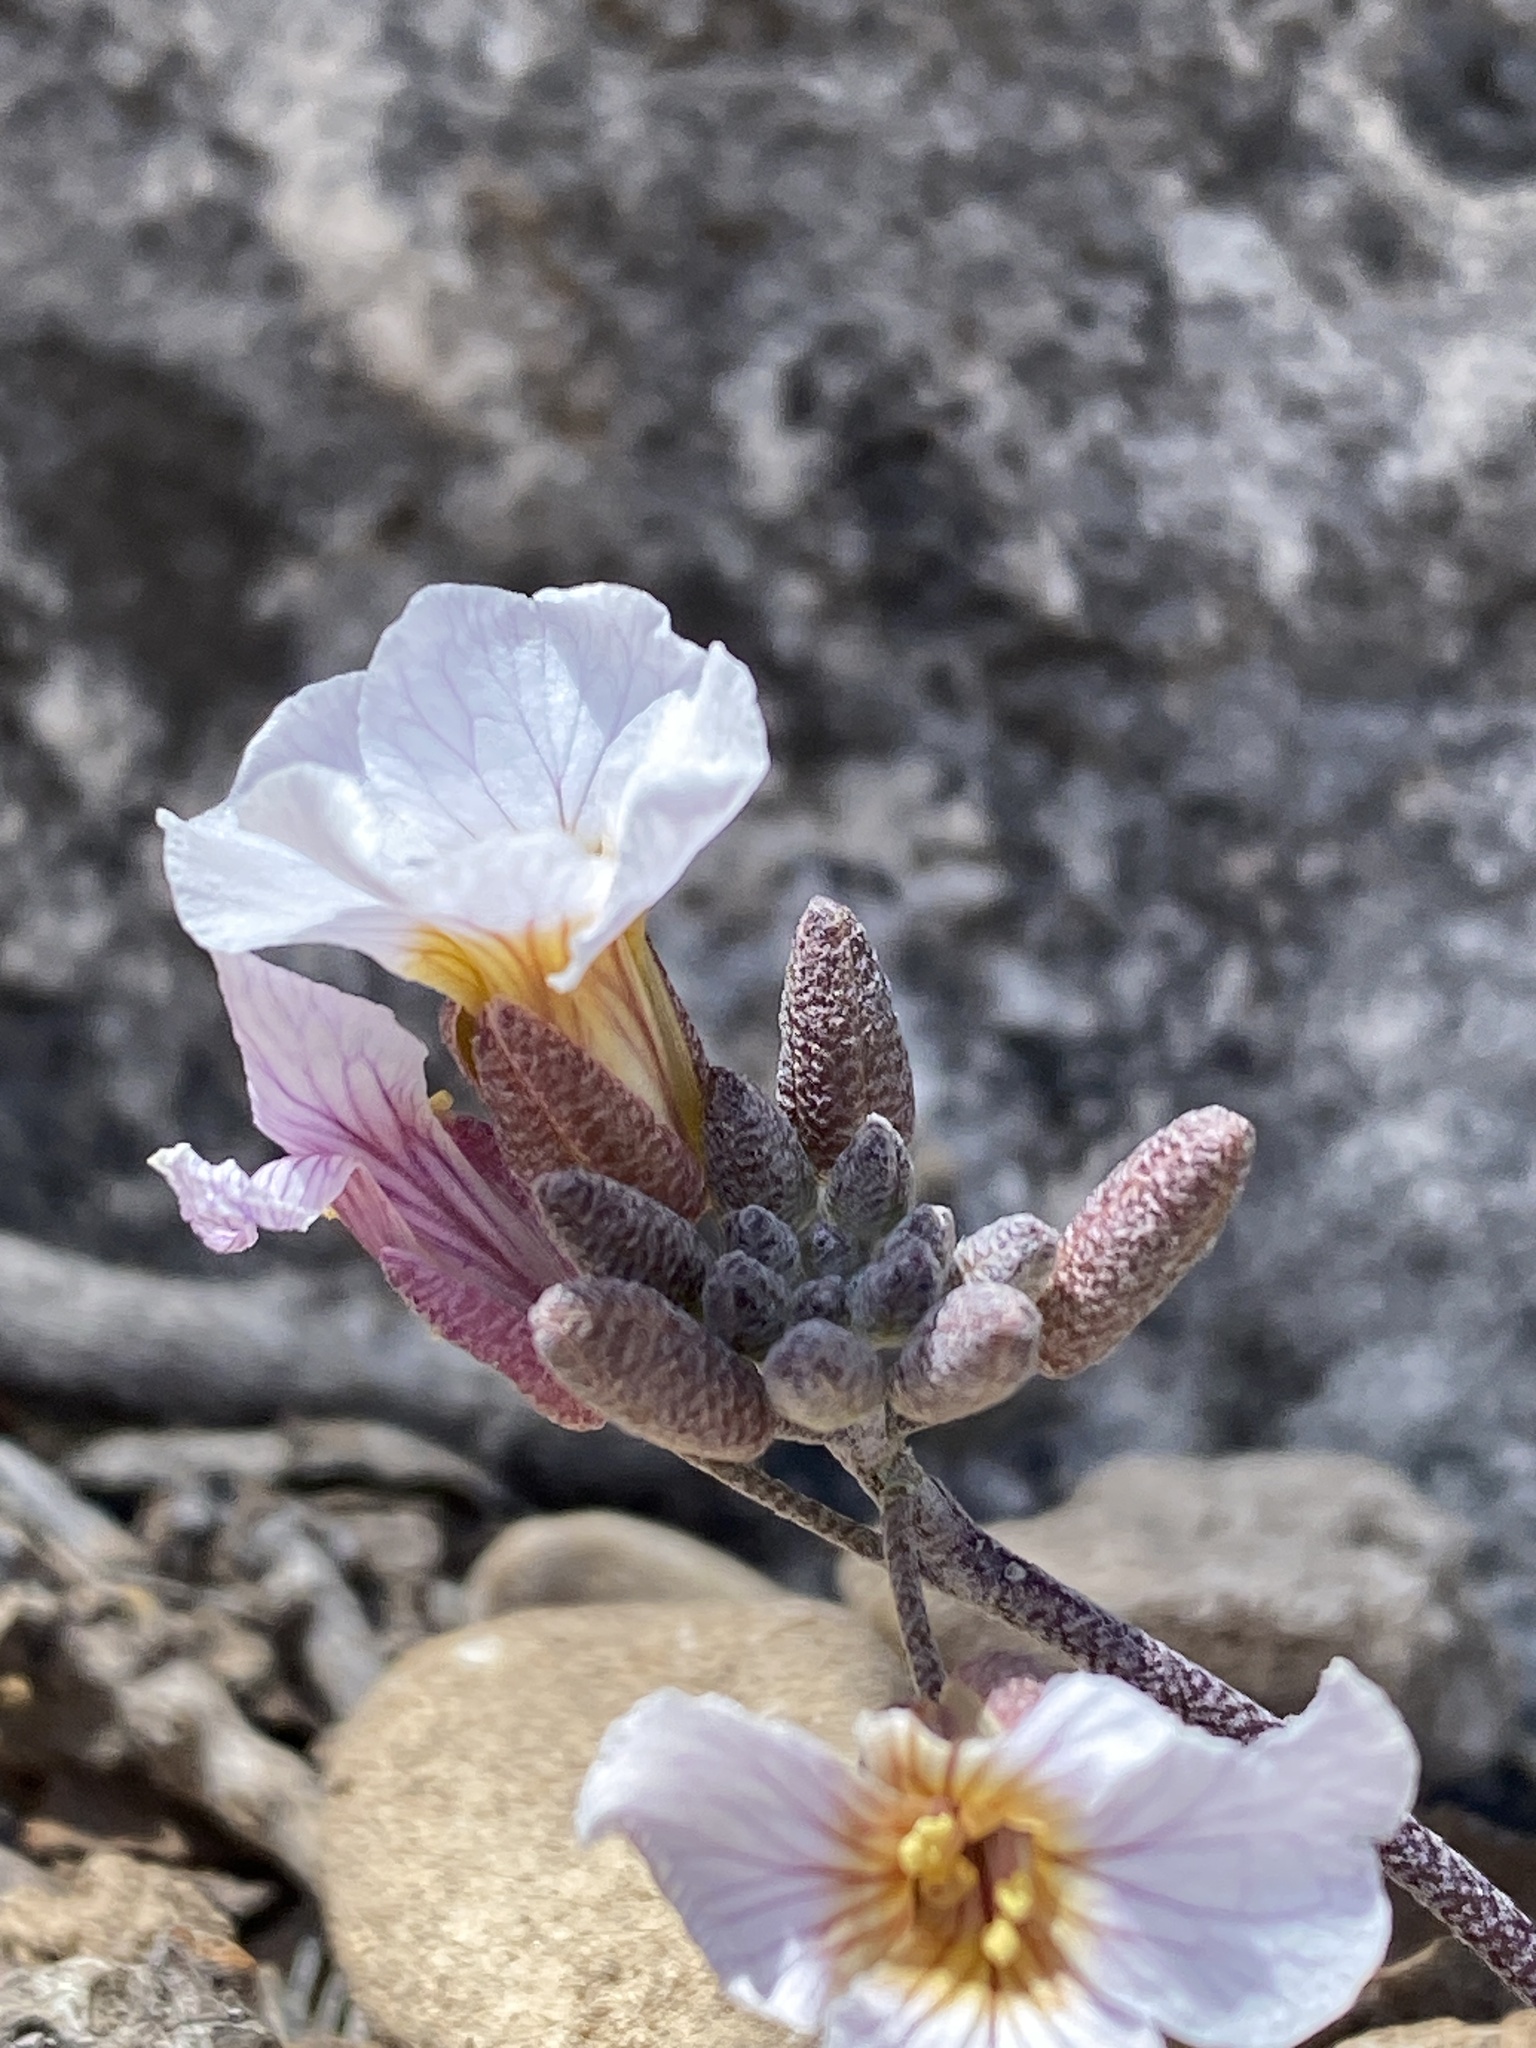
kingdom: Plantae
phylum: Tracheophyta
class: Magnoliopsida
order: Brassicales
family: Brassicaceae
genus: Physaria
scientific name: Physaria purpurea
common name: Rose bladderpod
